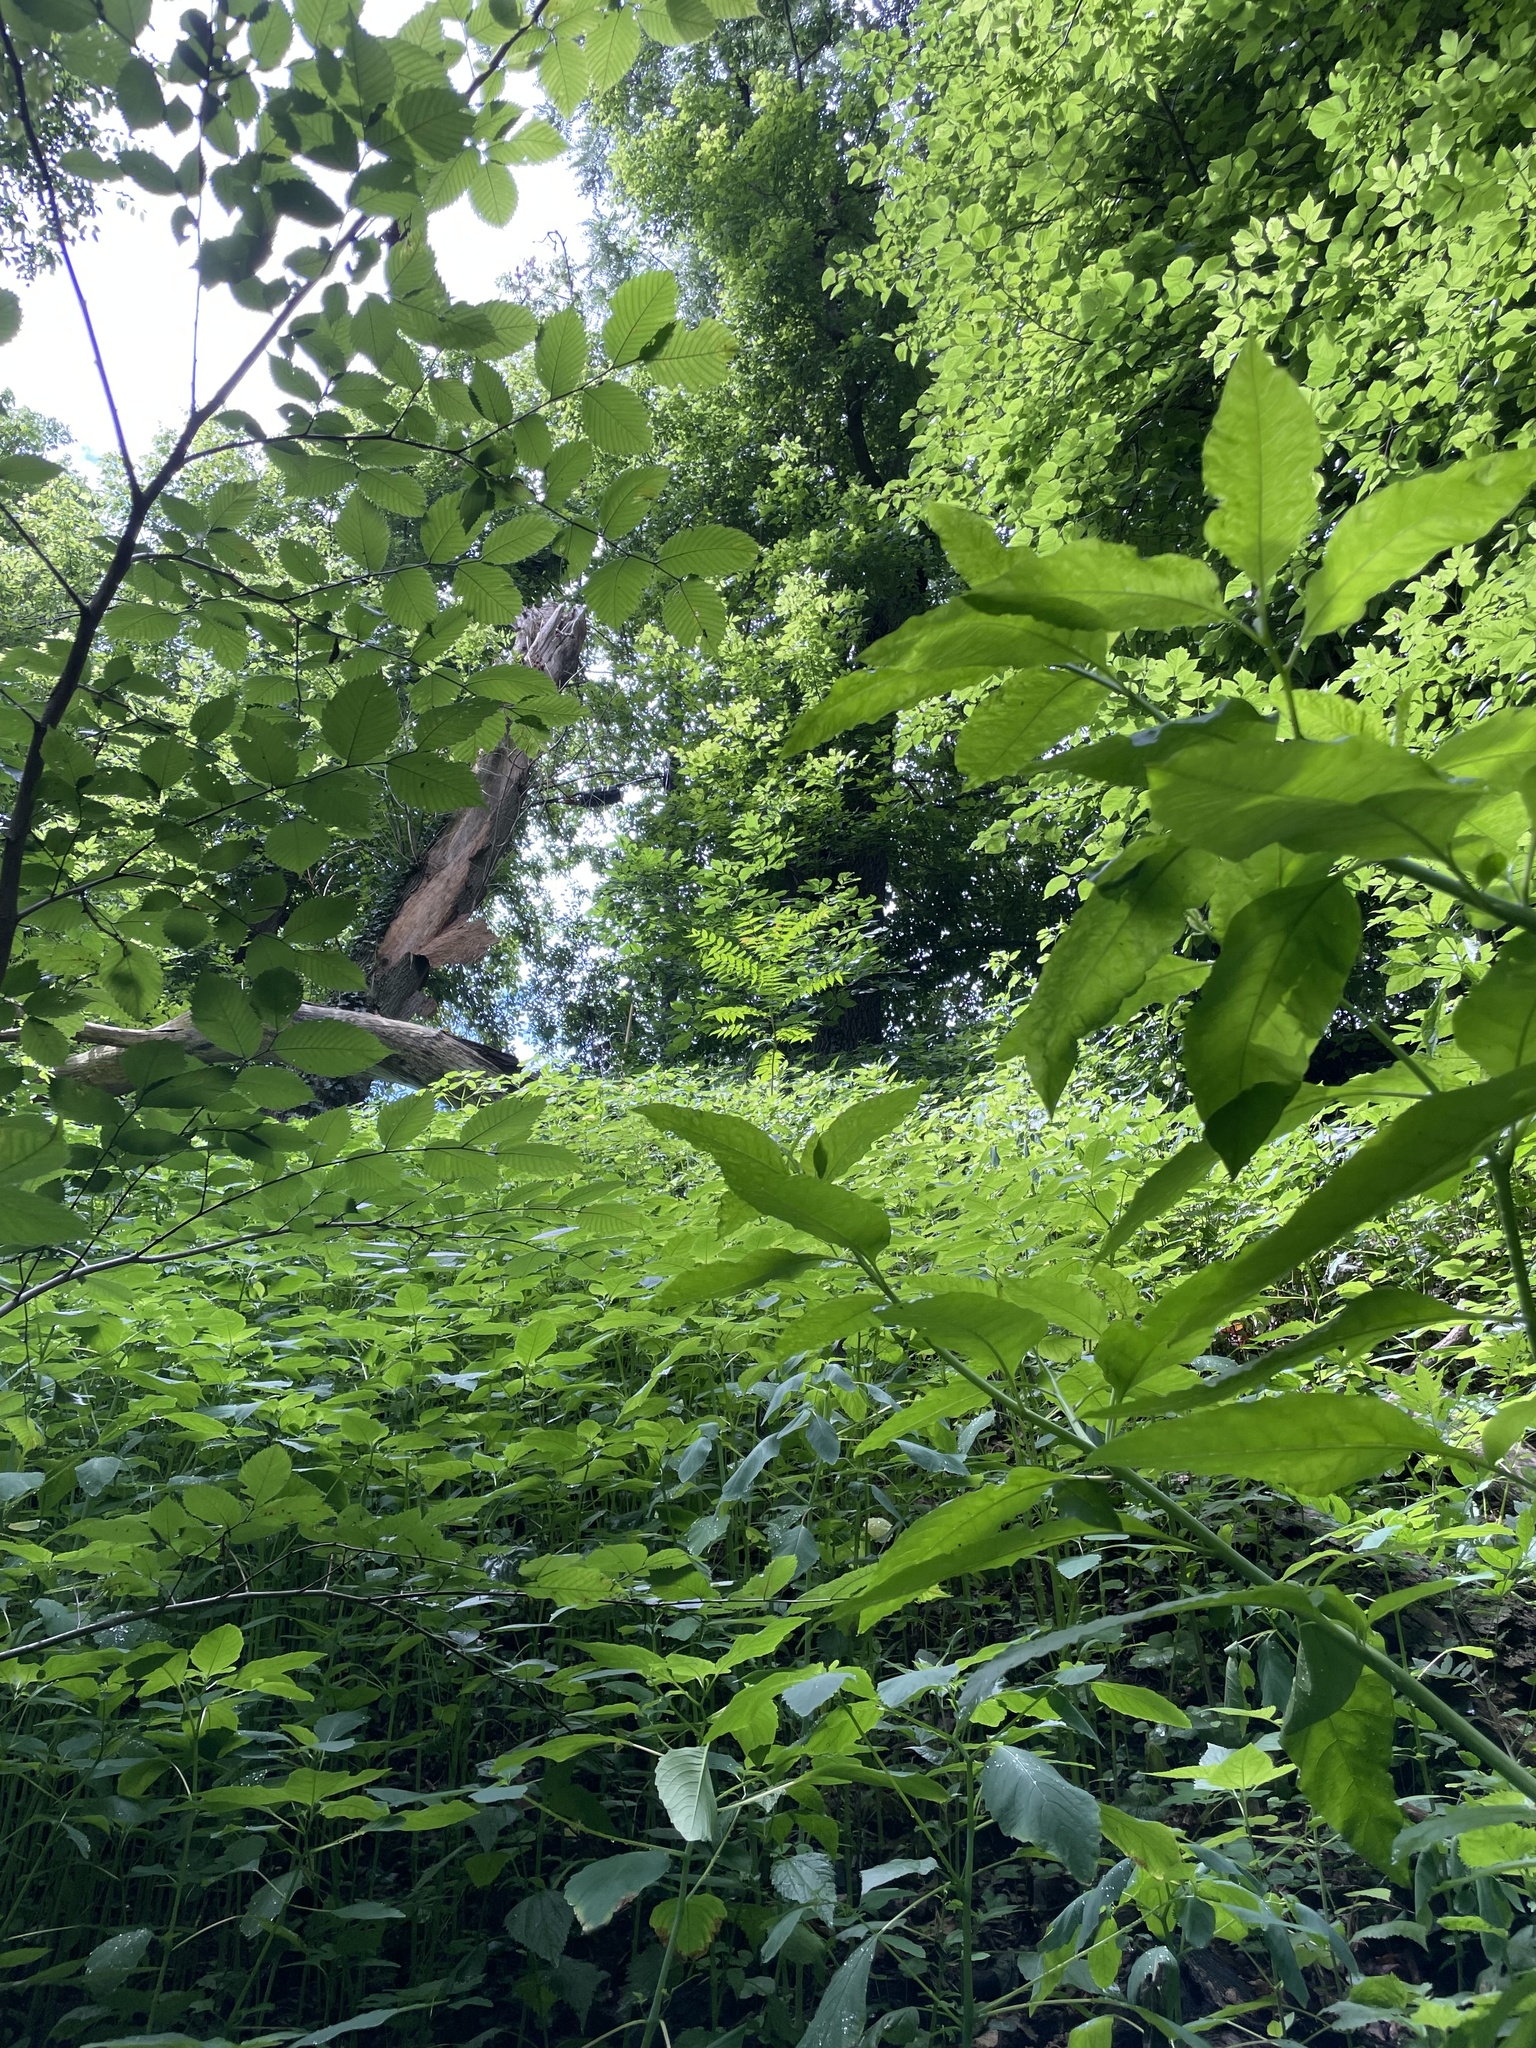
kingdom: Plantae
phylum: Tracheophyta
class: Magnoliopsida
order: Sapindales
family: Simaroubaceae
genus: Ailanthus
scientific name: Ailanthus altissima
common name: Tree-of-heaven
